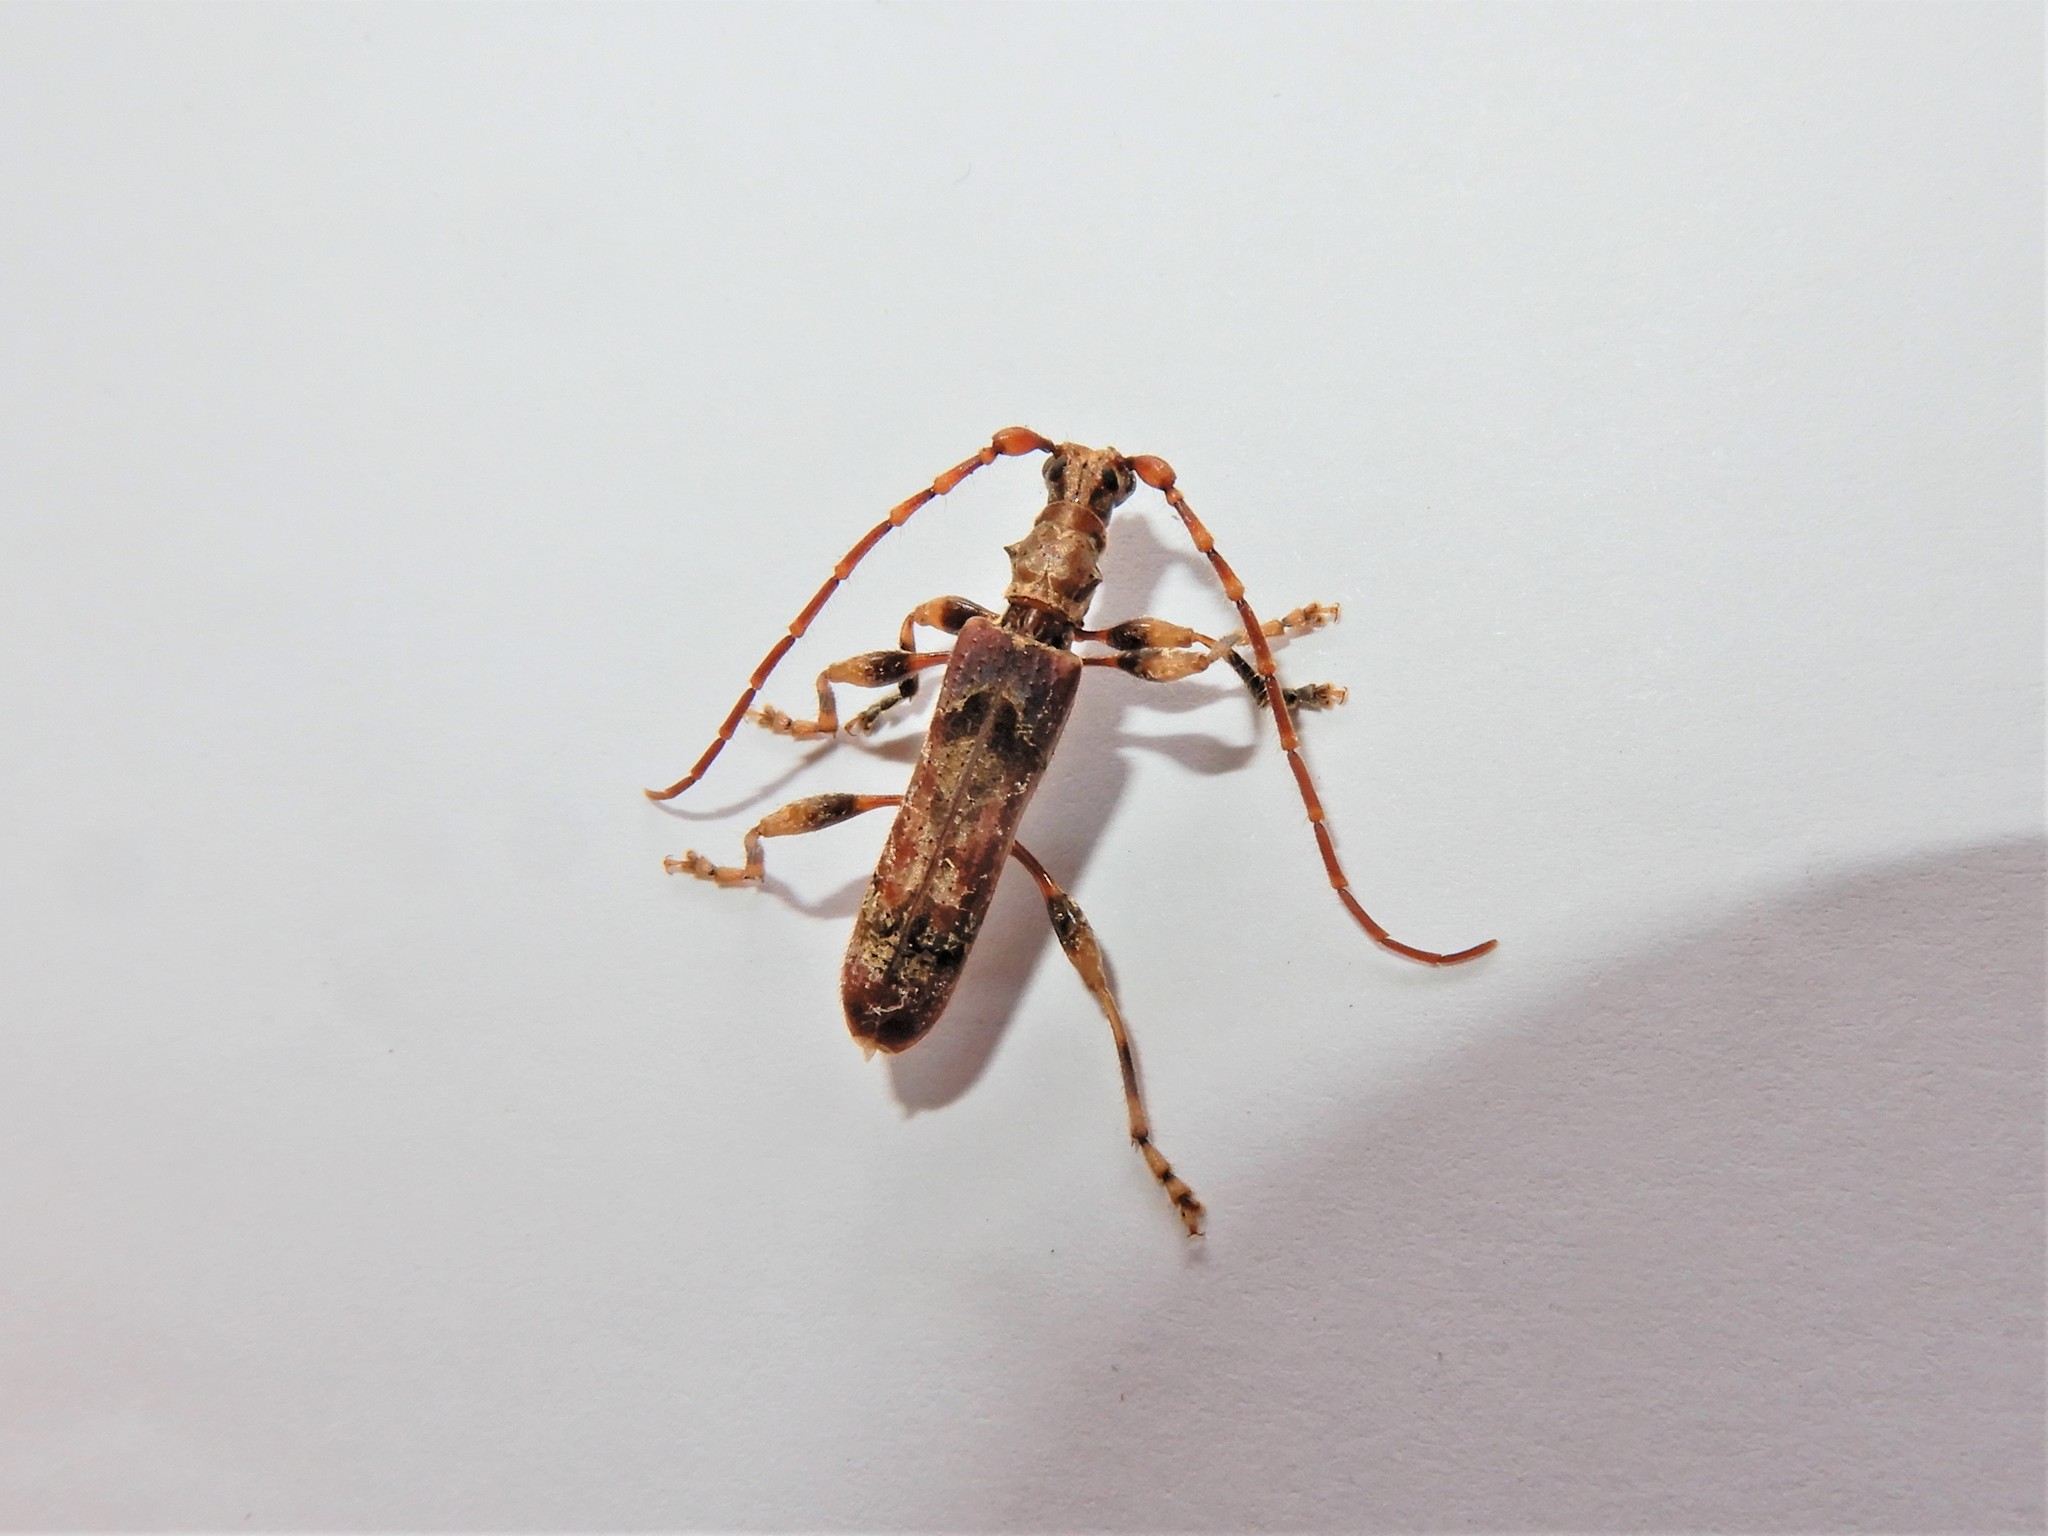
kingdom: Animalia
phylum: Arthropoda
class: Insecta
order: Coleoptera
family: Cerambycidae
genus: Tessaromma
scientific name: Tessaromma undatum
